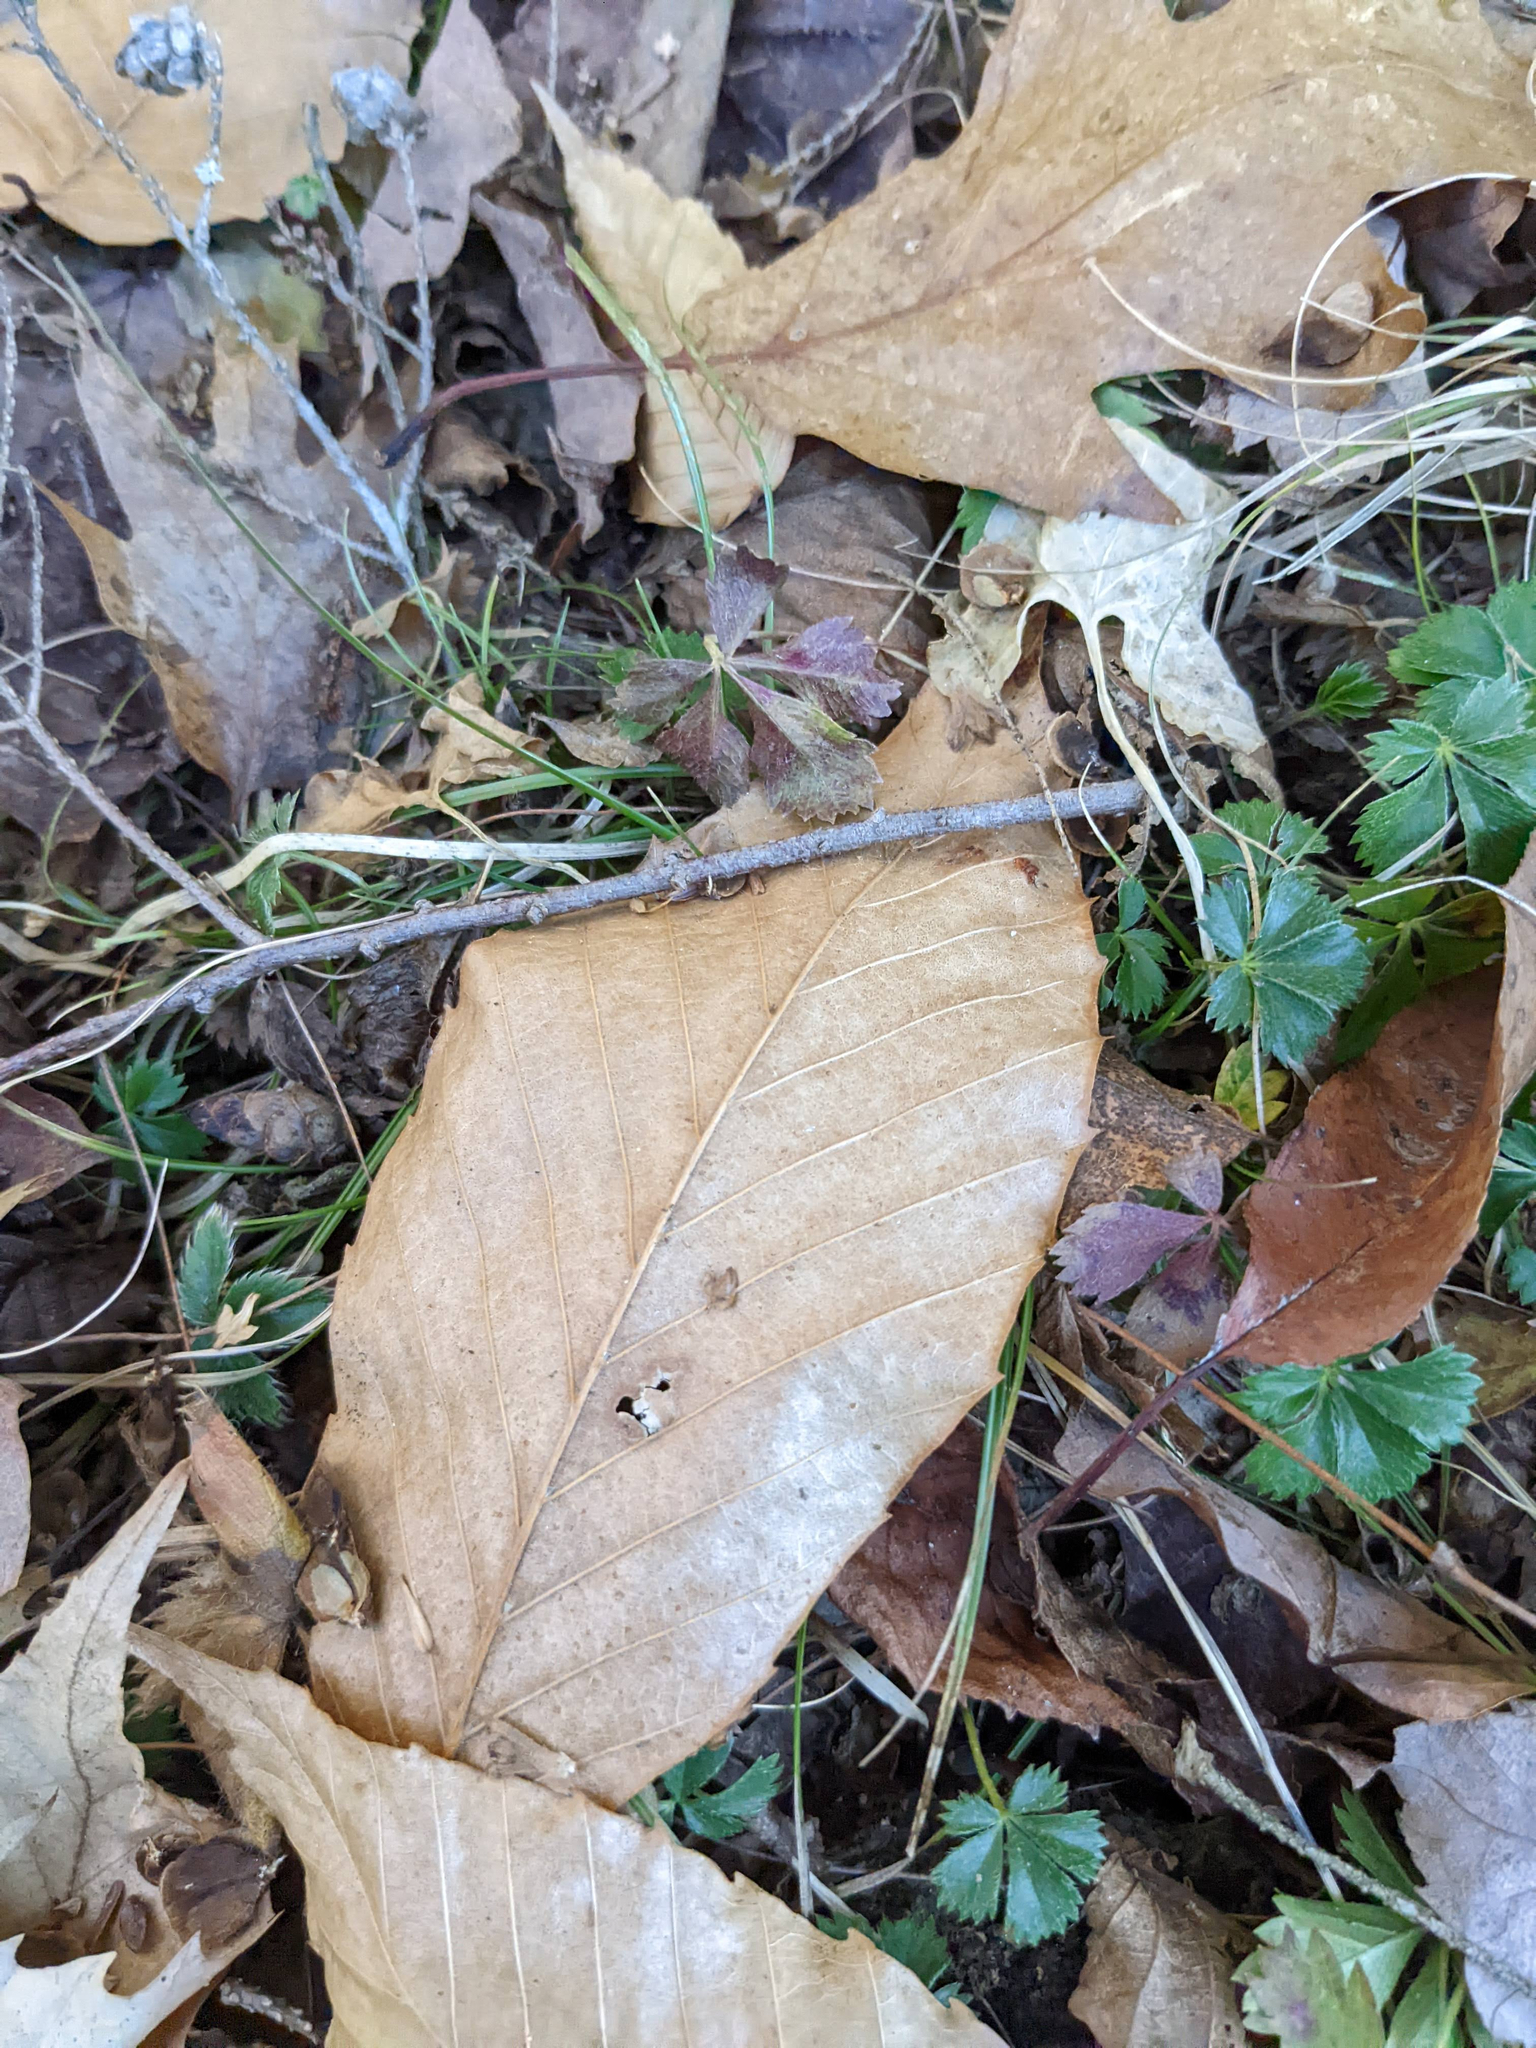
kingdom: Plantae
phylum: Tracheophyta
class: Magnoliopsida
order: Fagales
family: Fagaceae
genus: Fagus
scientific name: Fagus grandifolia
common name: American beech
